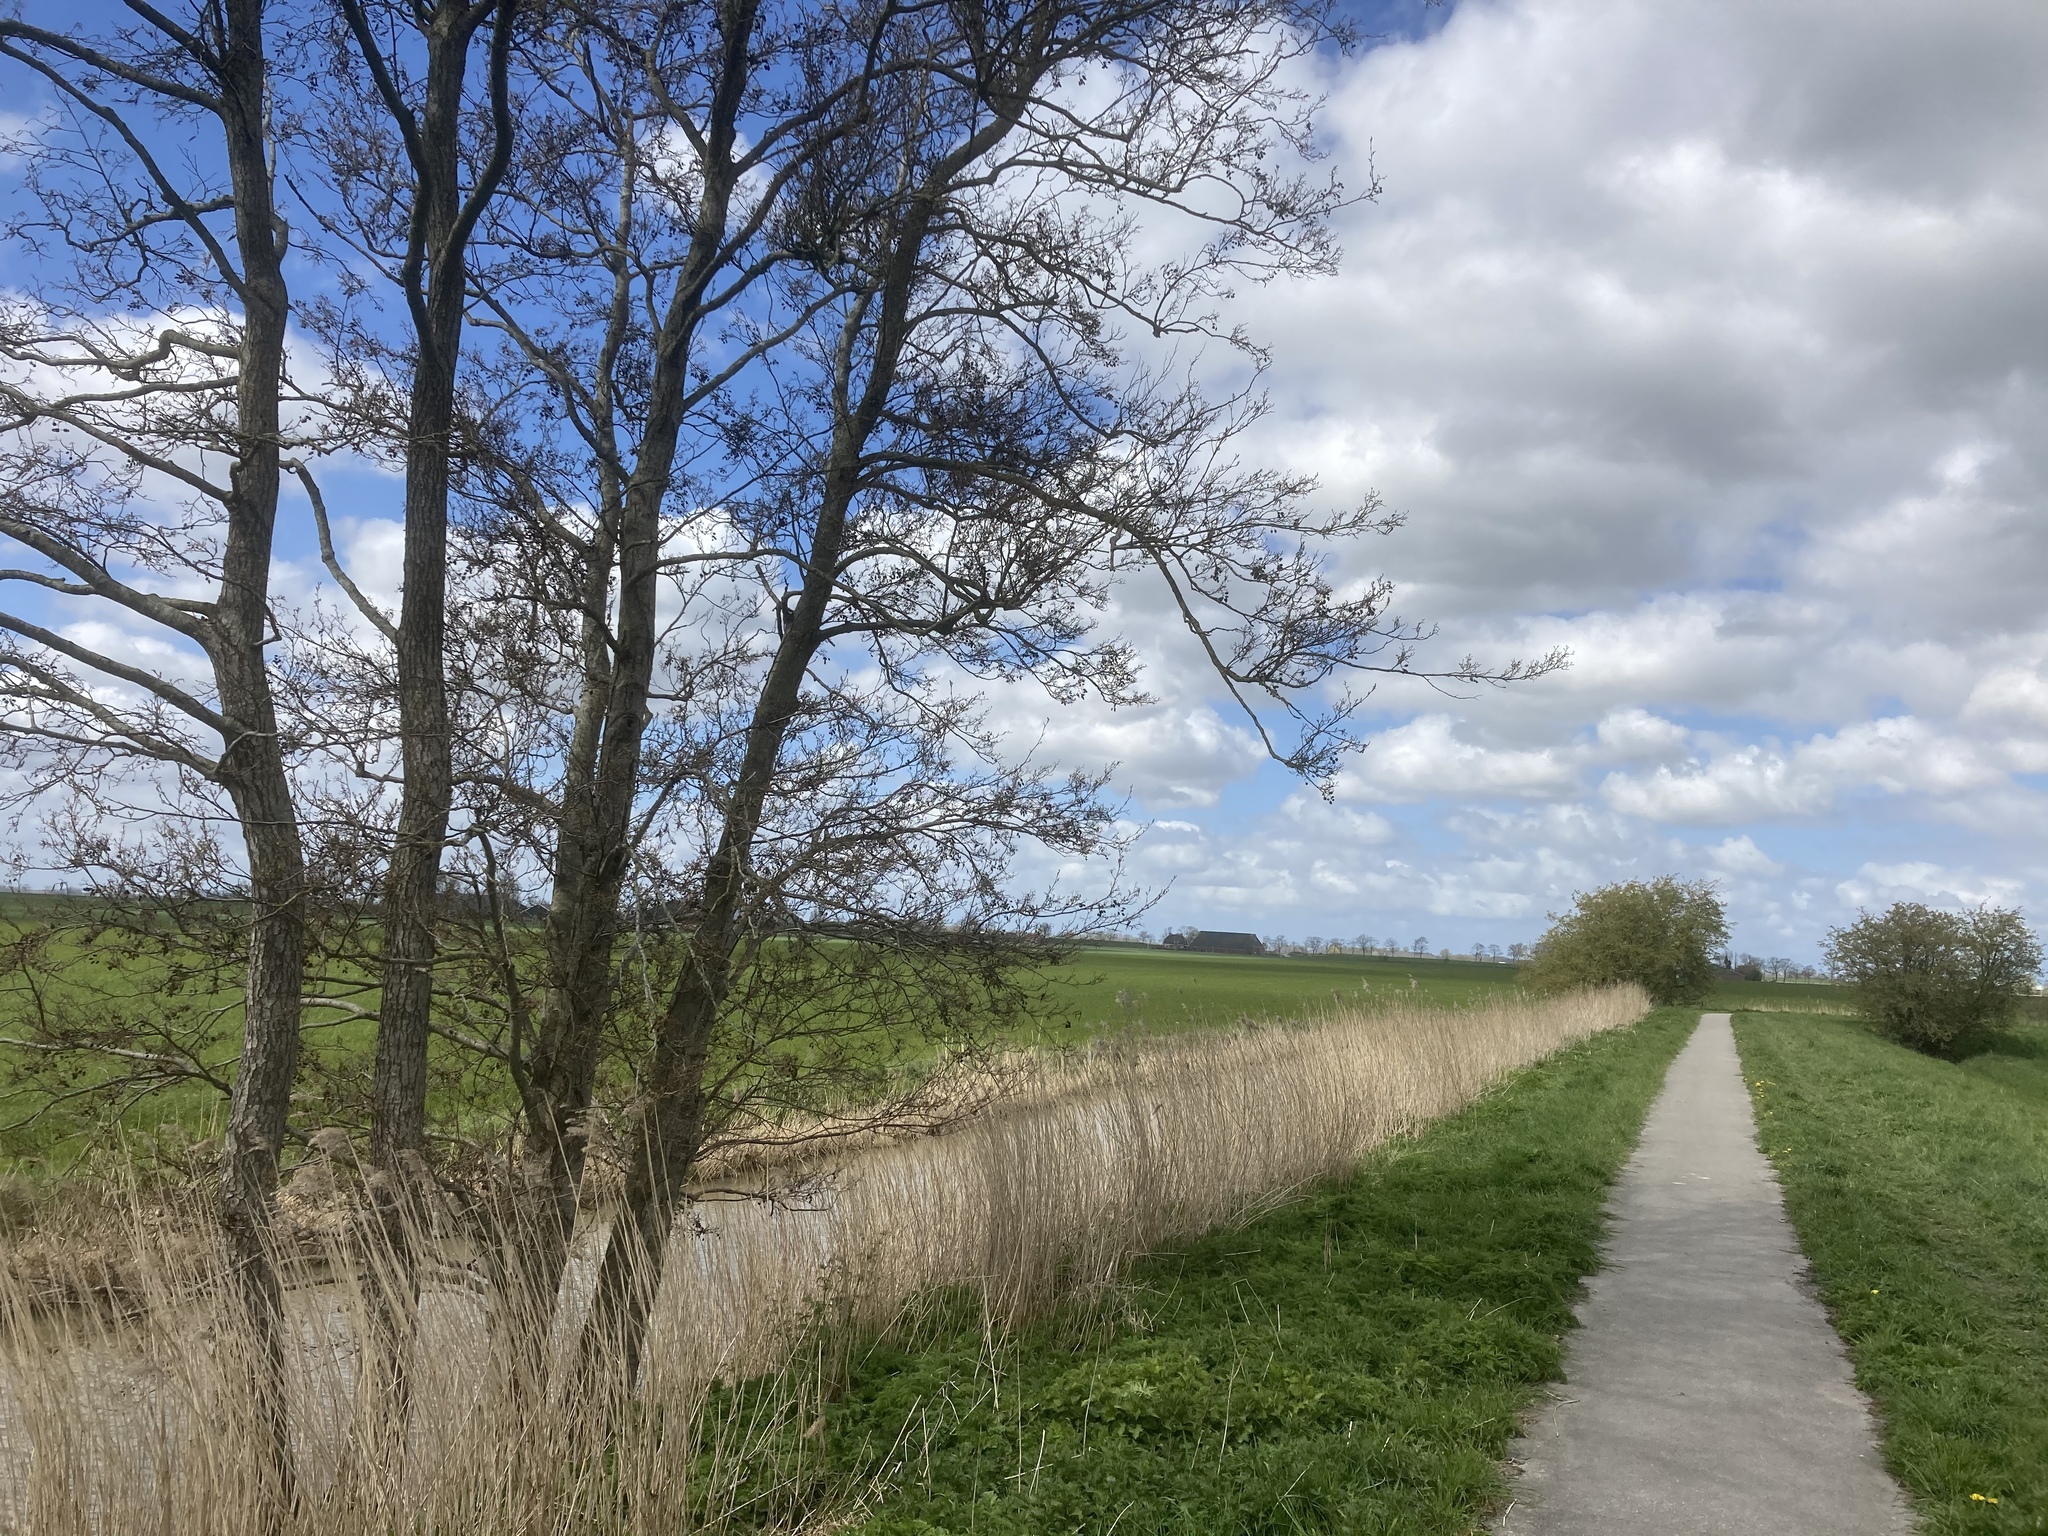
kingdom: Plantae
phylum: Tracheophyta
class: Magnoliopsida
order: Fagales
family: Betulaceae
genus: Alnus
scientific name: Alnus glutinosa
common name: Black alder
